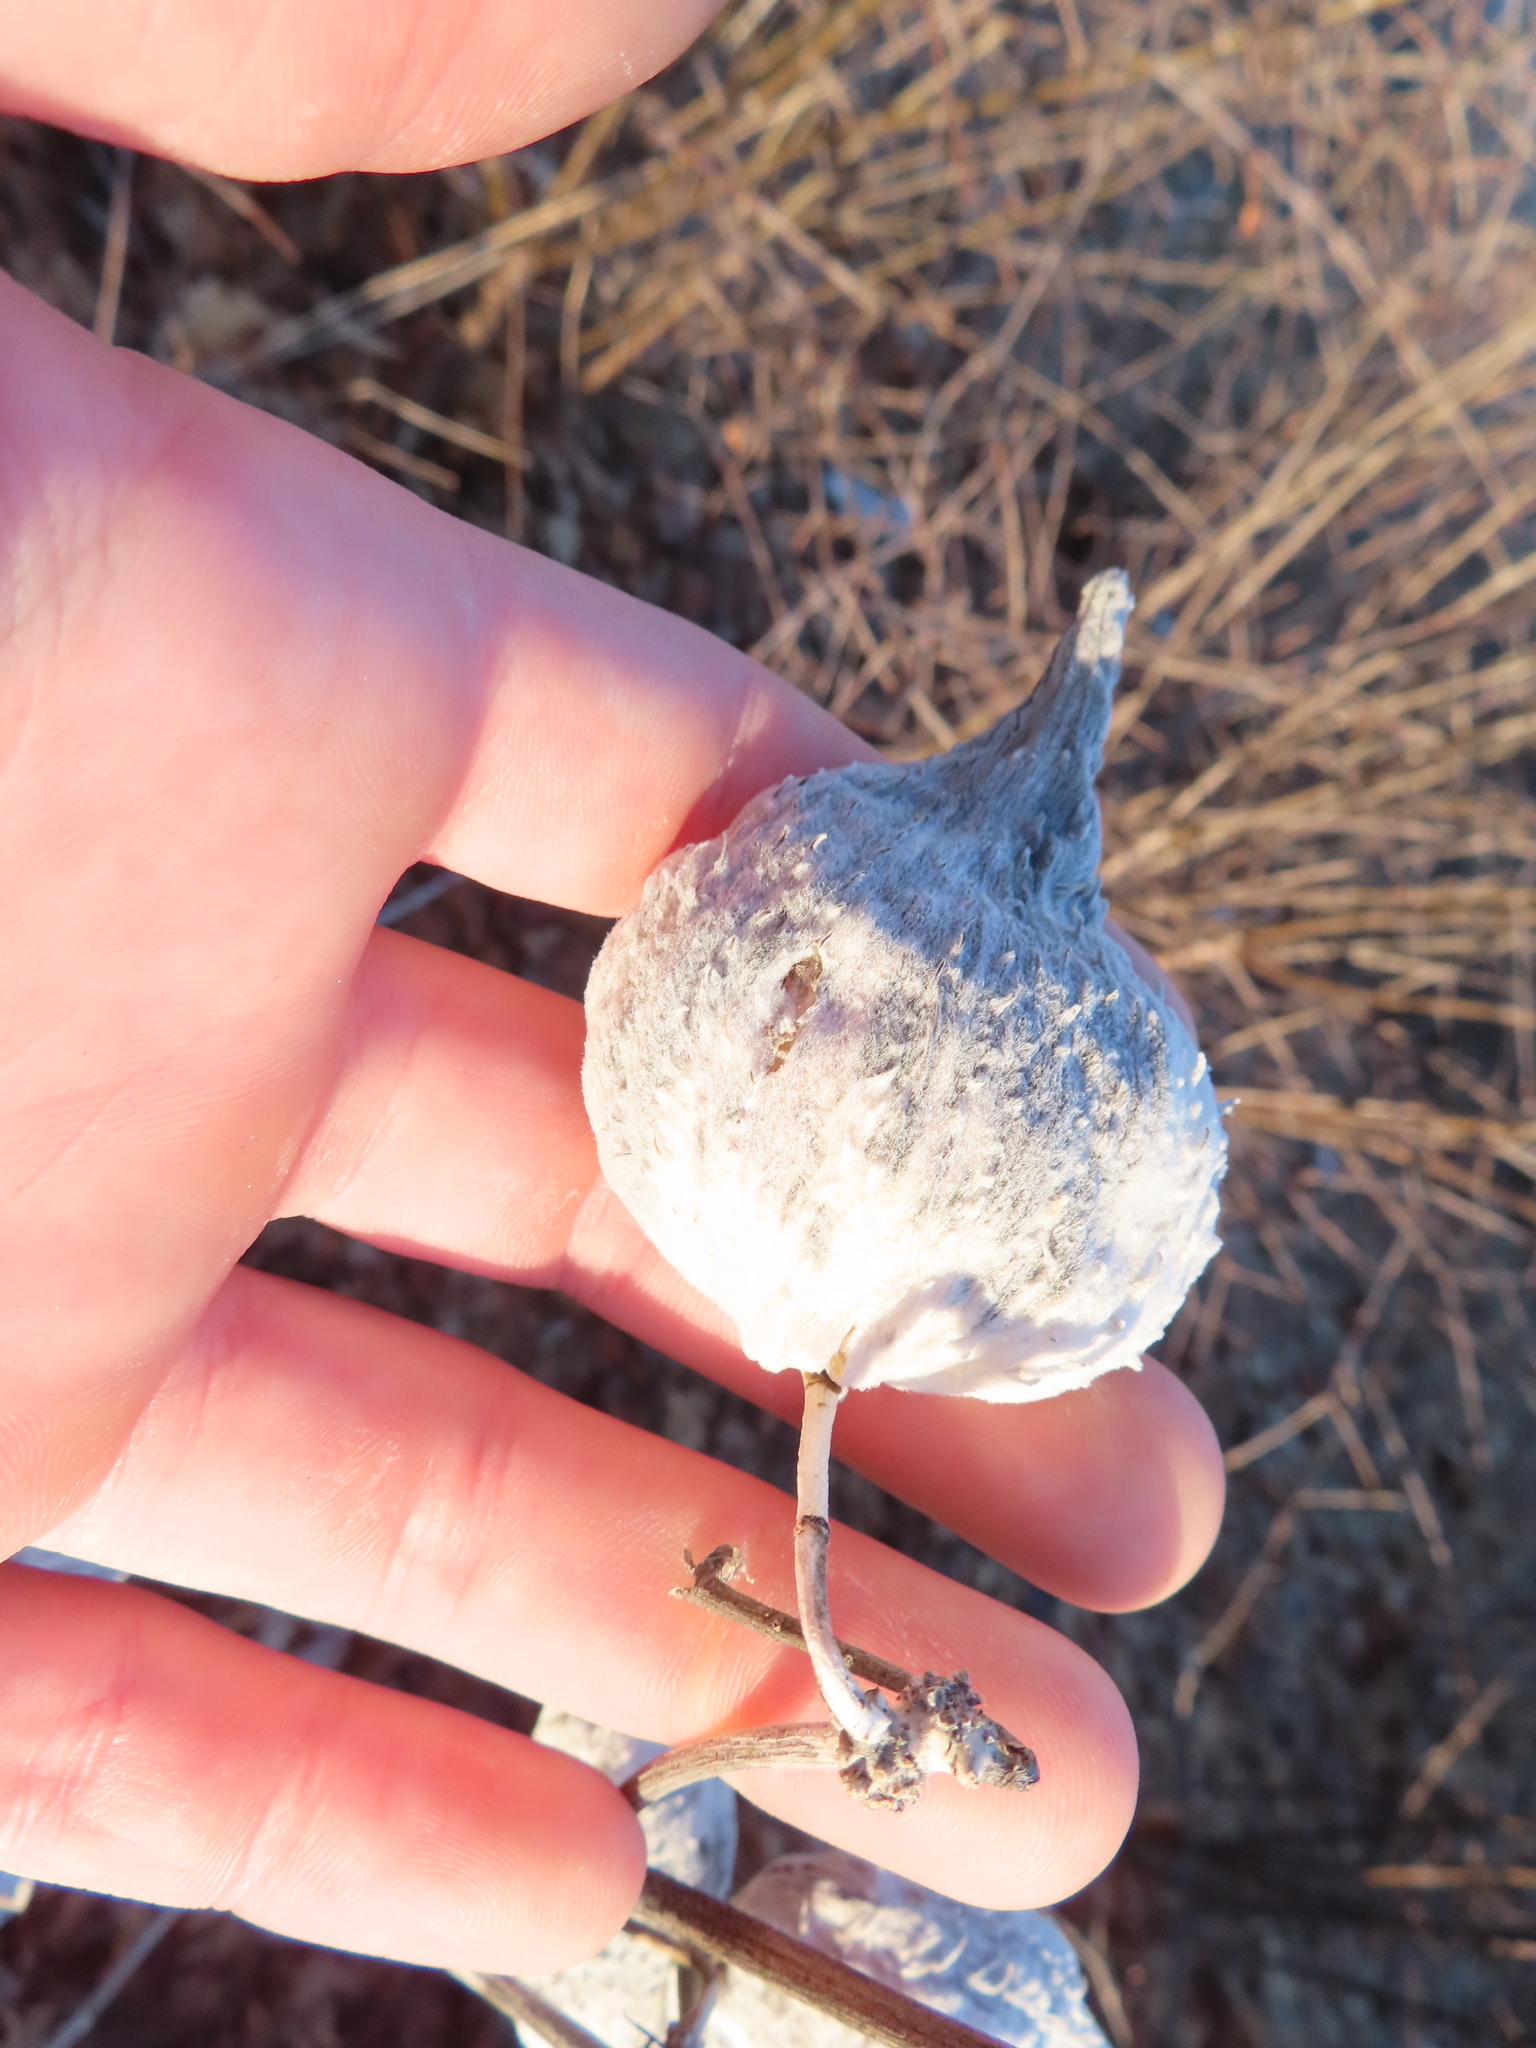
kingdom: Plantae
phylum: Tracheophyta
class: Magnoliopsida
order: Gentianales
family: Apocynaceae
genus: Asclepias
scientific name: Asclepias syriaca
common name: Common milkweed
